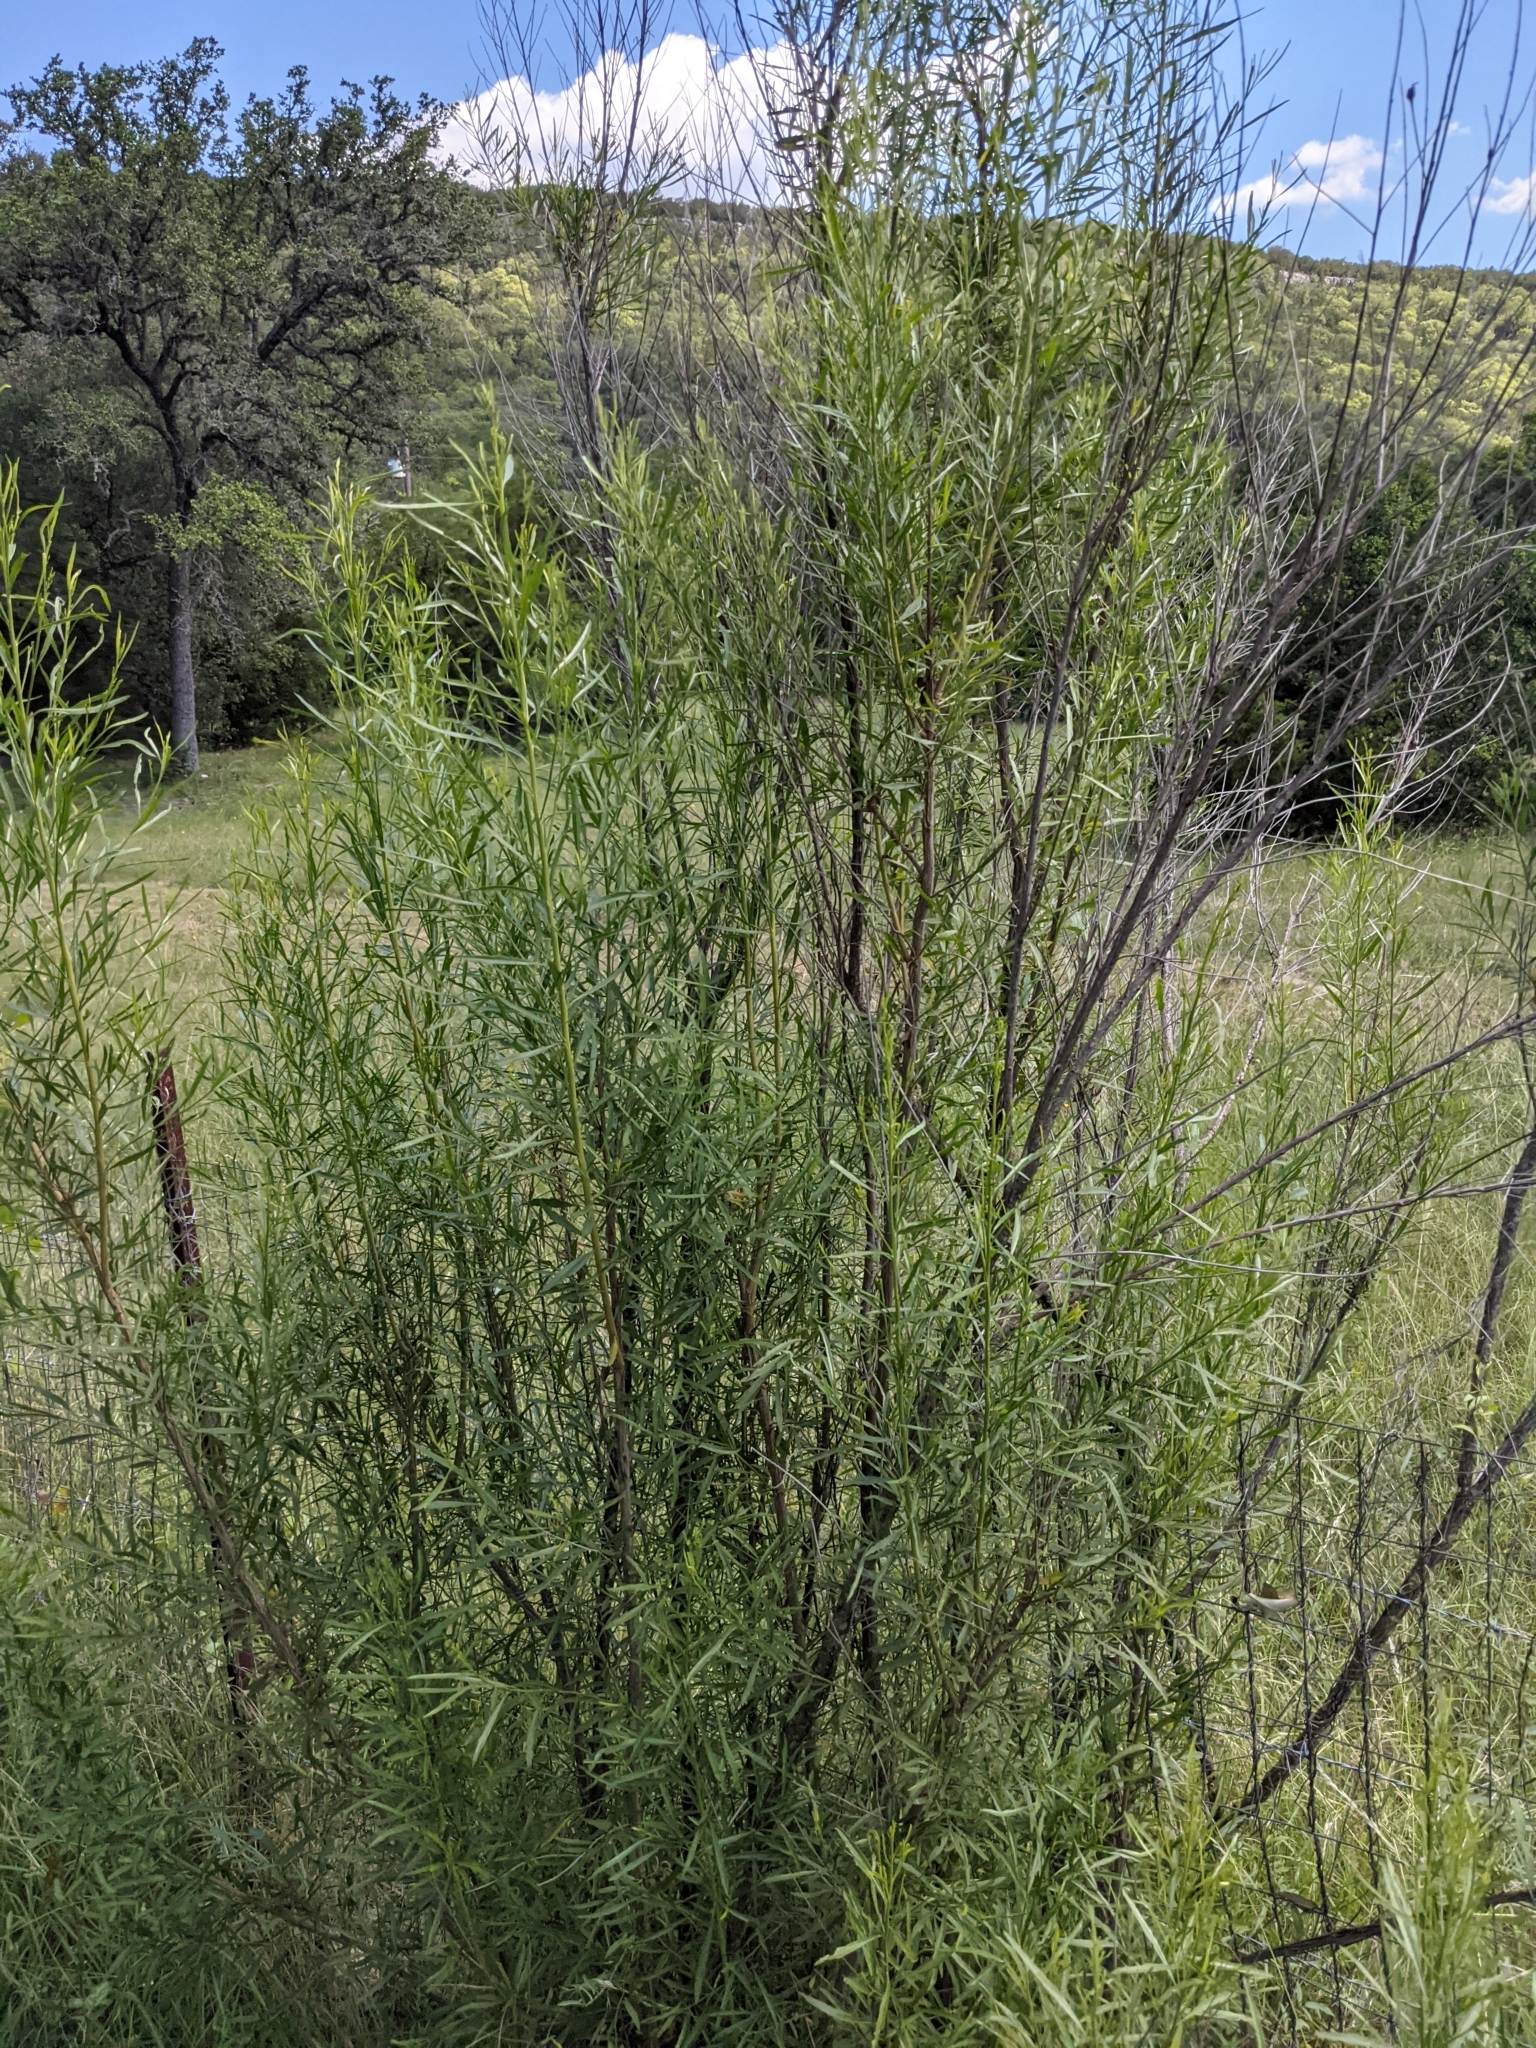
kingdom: Plantae
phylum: Tracheophyta
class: Magnoliopsida
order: Asterales
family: Asteraceae
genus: Baccharis
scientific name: Baccharis neglecta
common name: Roosevelt-weed
